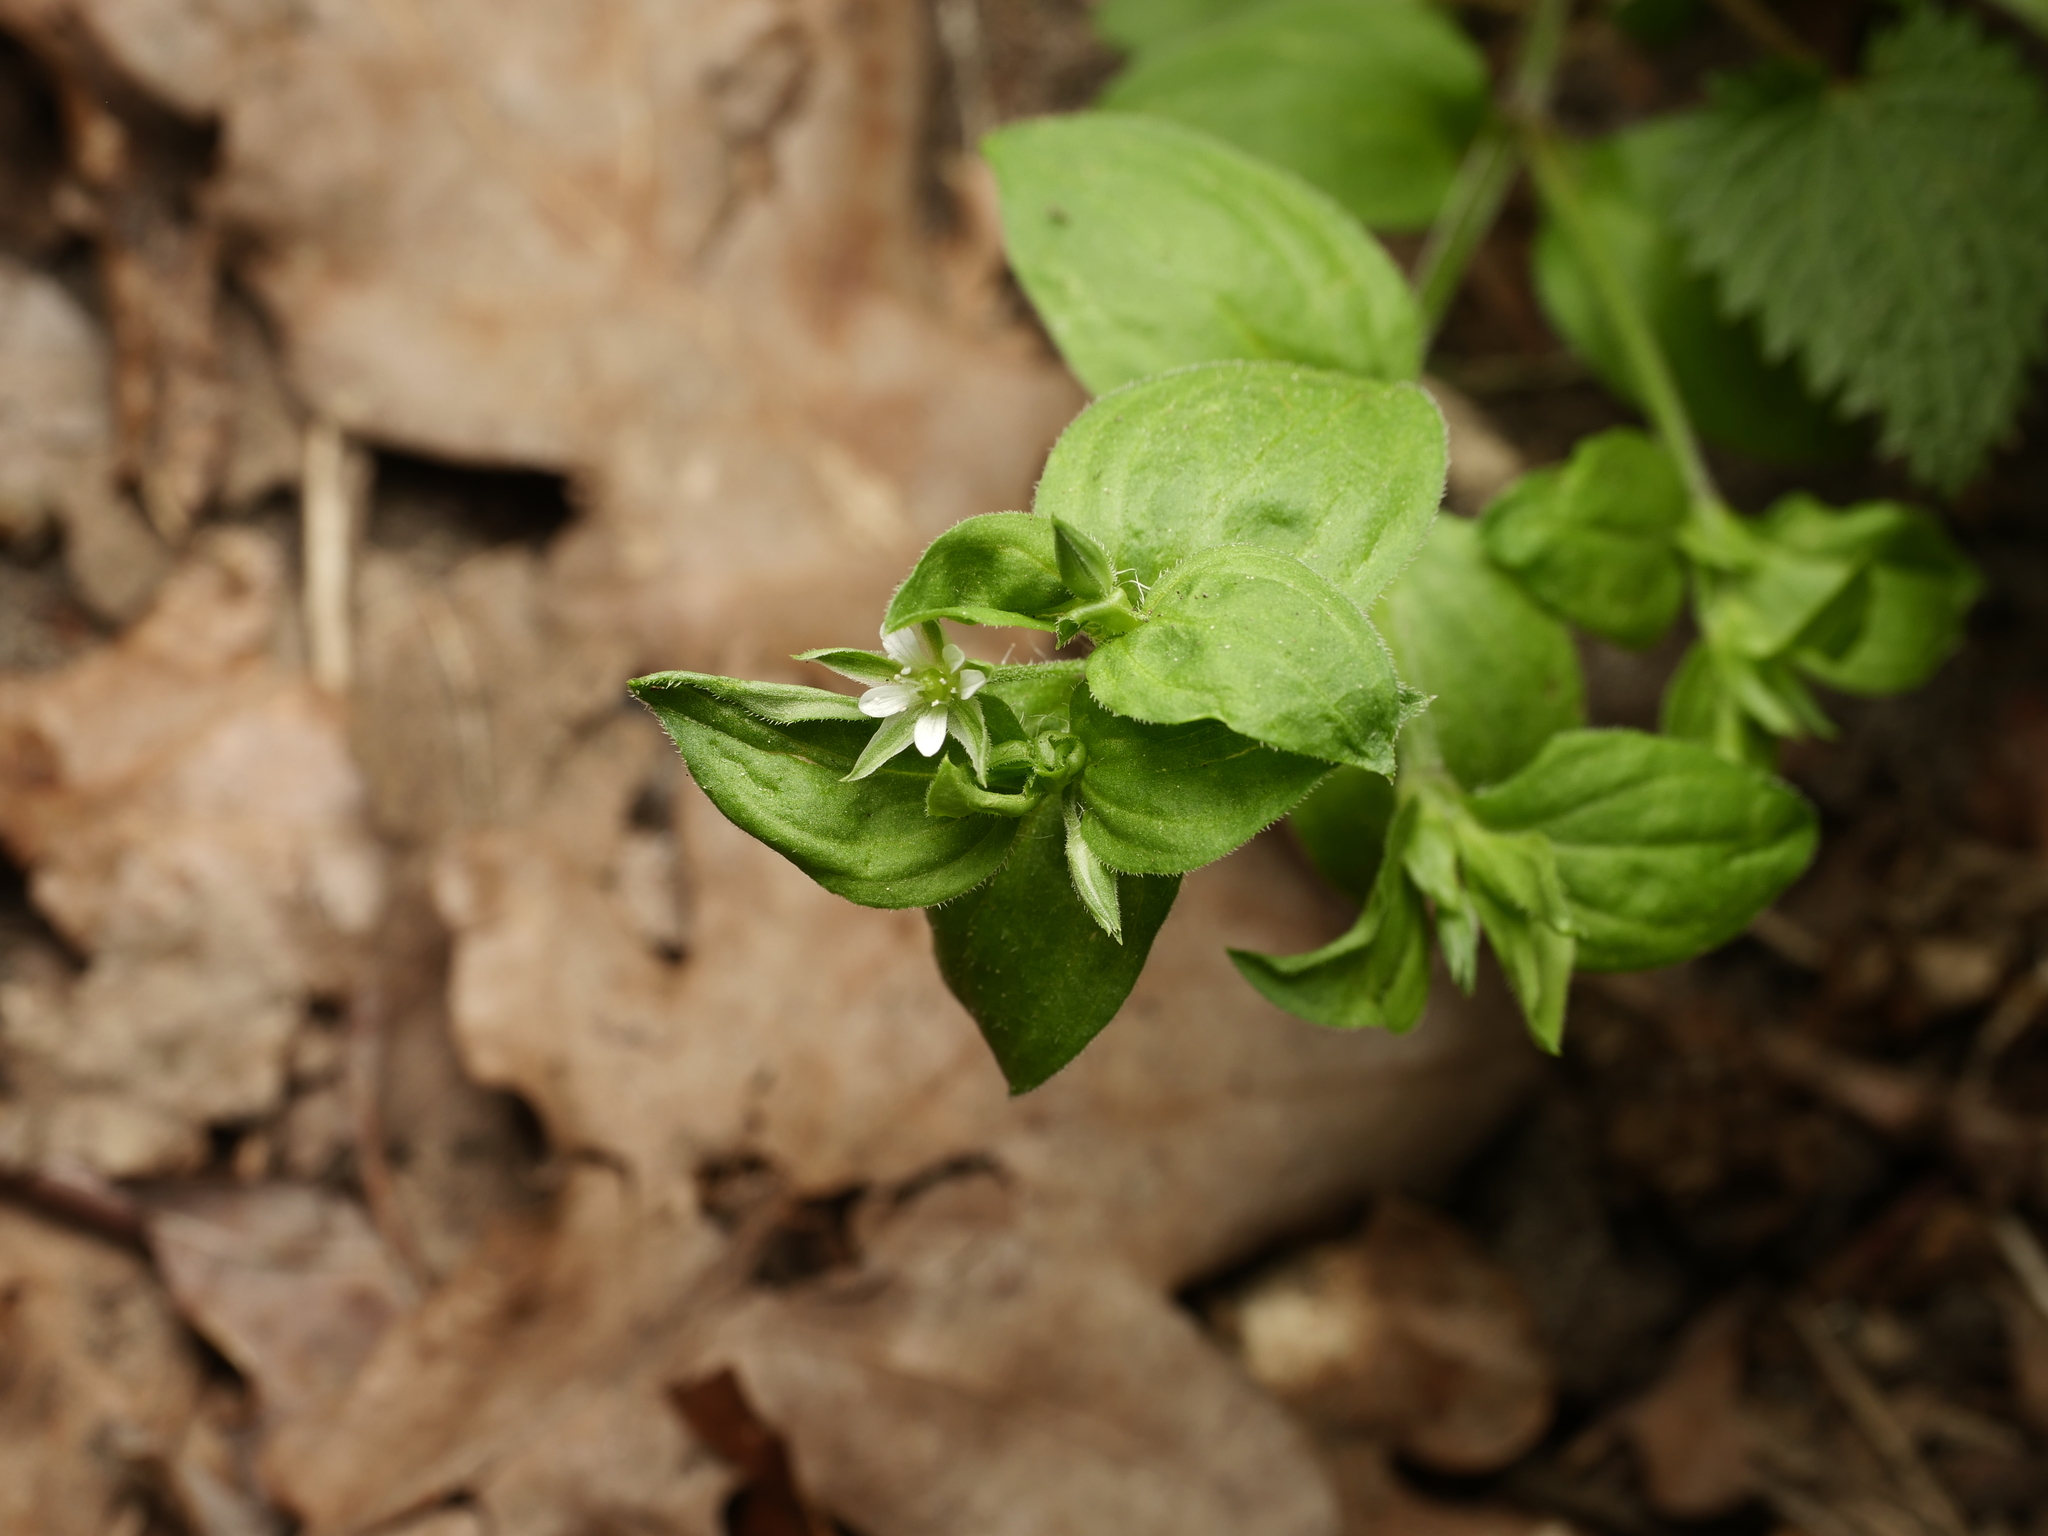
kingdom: Plantae
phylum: Tracheophyta
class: Magnoliopsida
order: Caryophyllales
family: Caryophyllaceae
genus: Moehringia
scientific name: Moehringia trinervia
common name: Three-nerved sandwort
